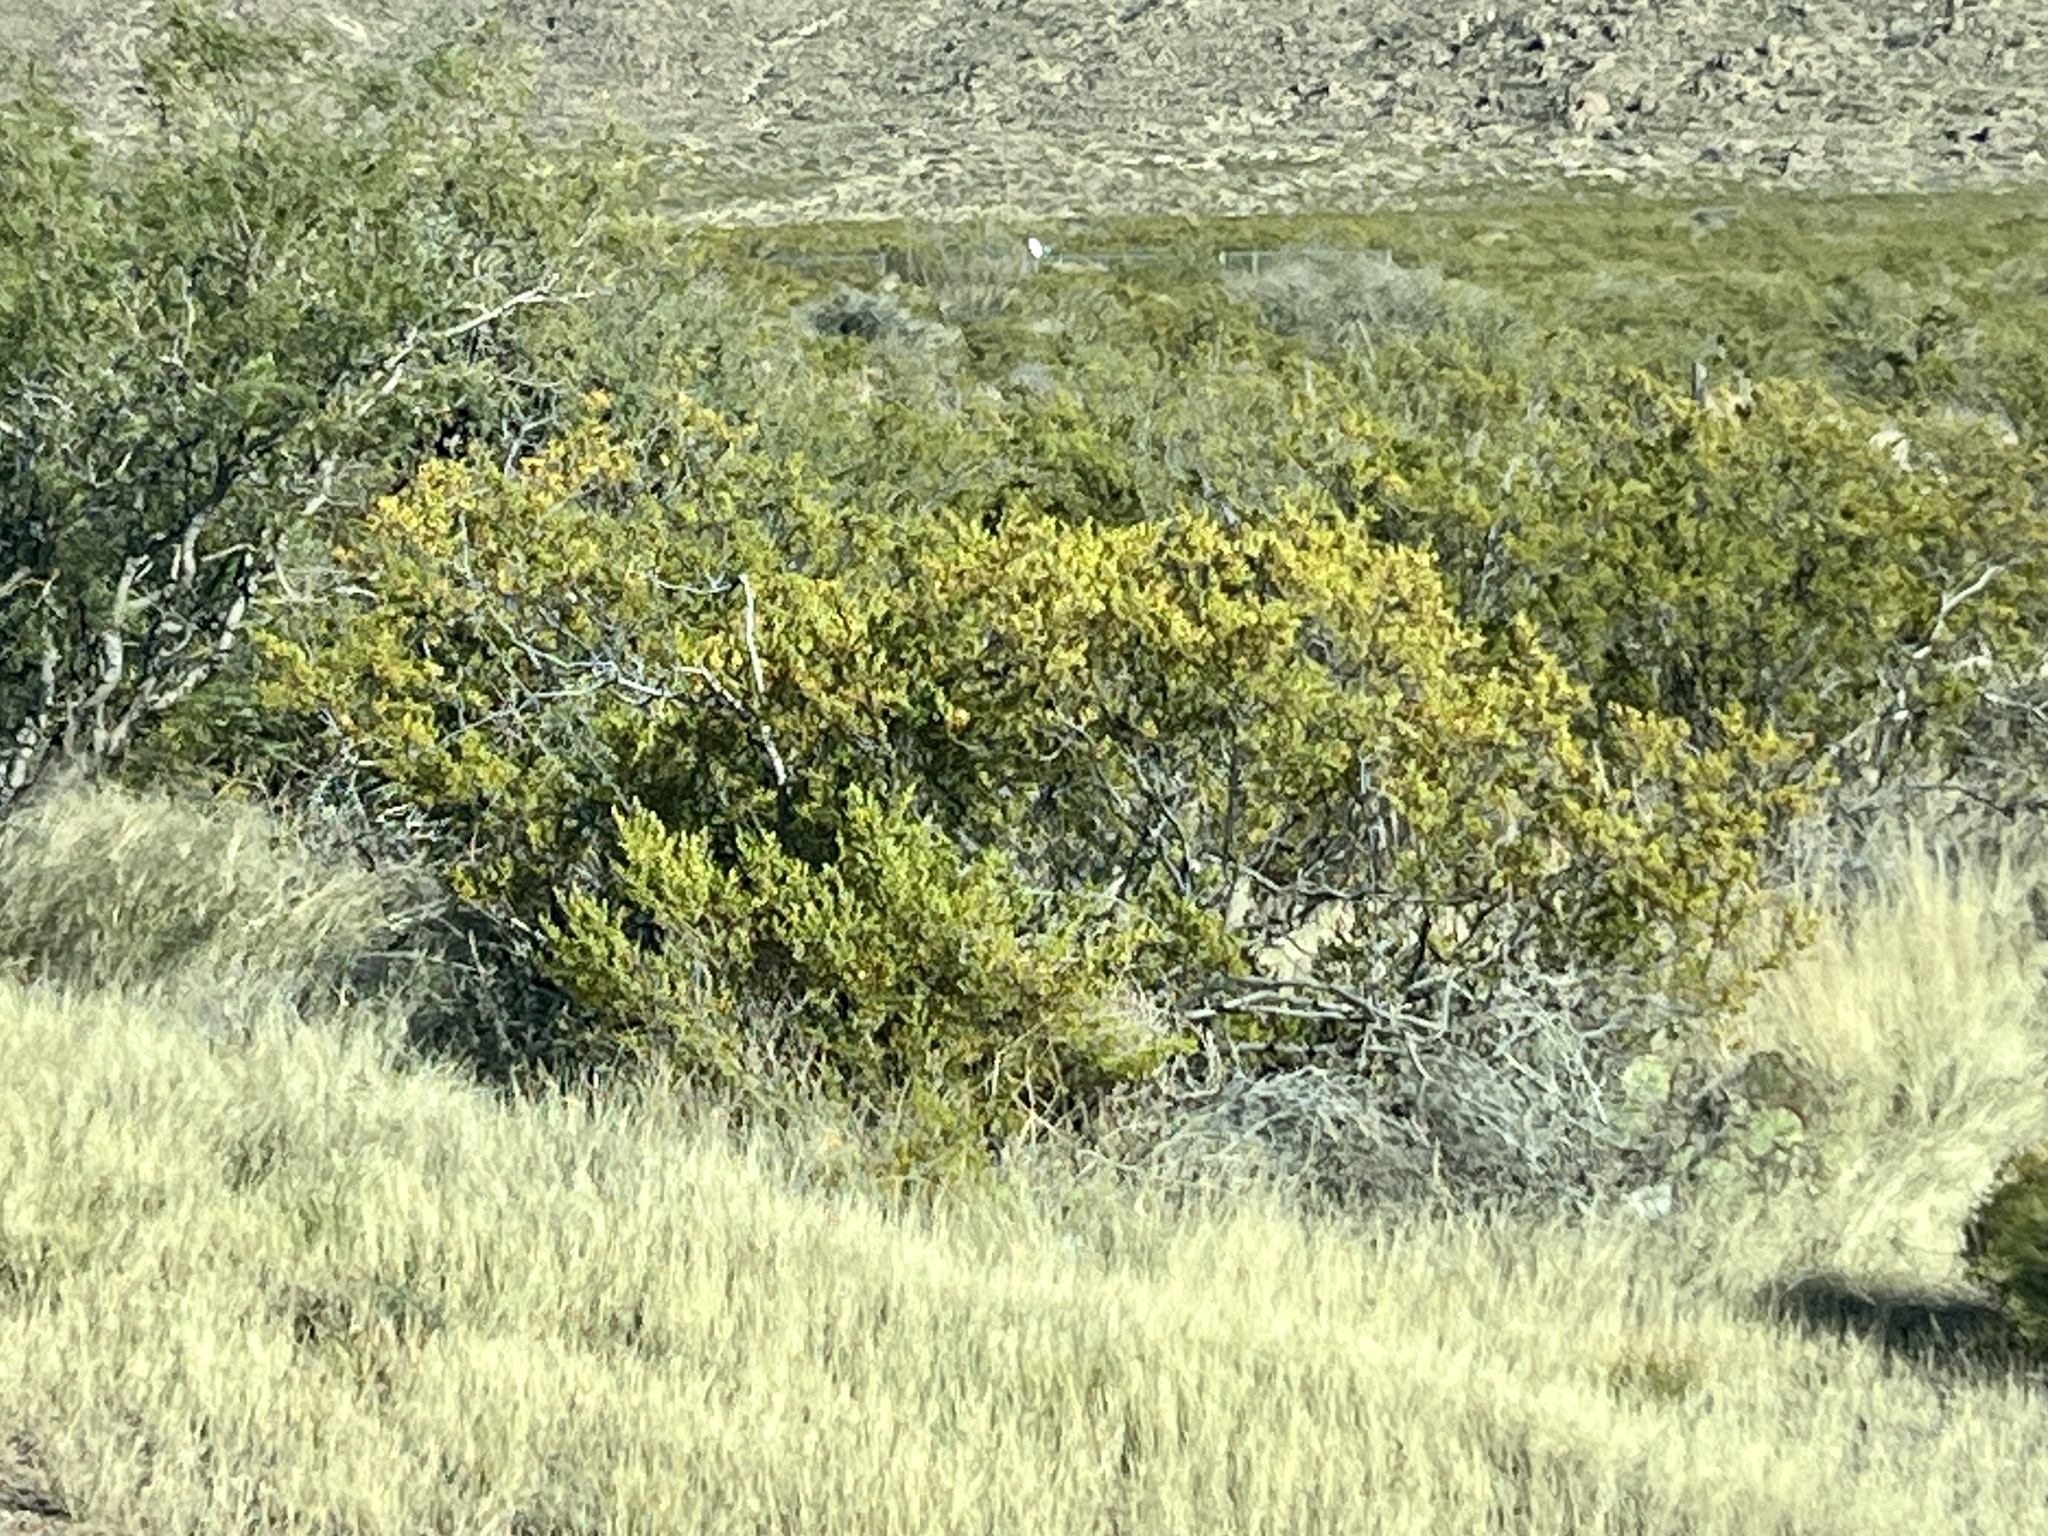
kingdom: Plantae
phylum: Tracheophyta
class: Magnoliopsida
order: Zygophyllales
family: Zygophyllaceae
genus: Larrea
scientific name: Larrea tridentata
